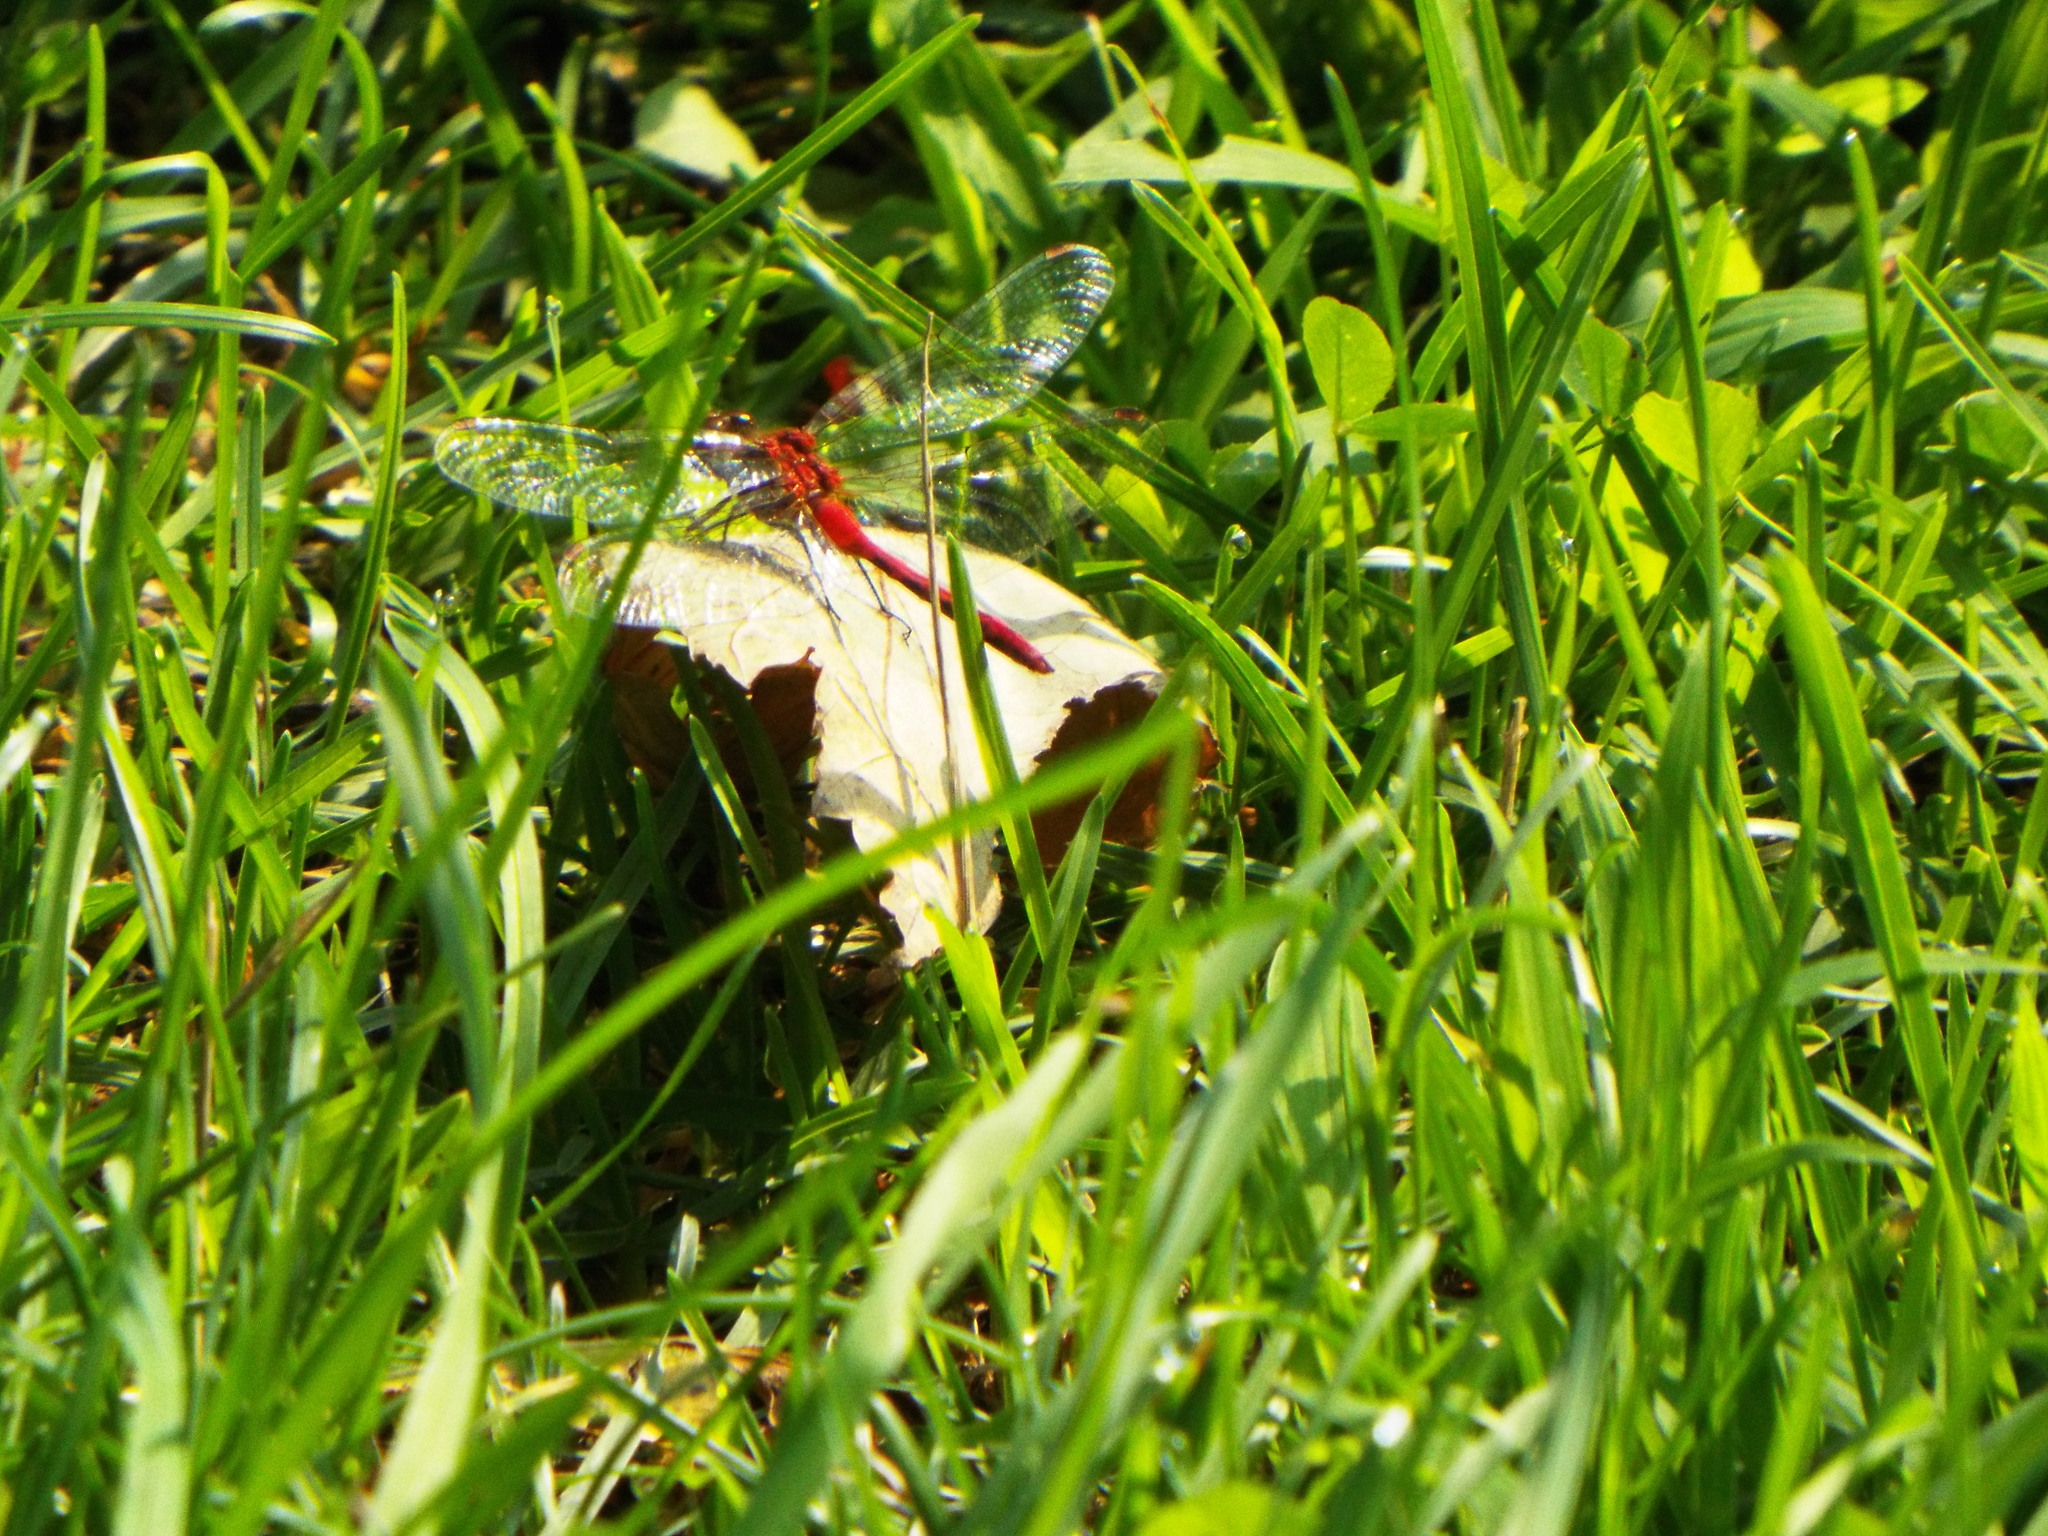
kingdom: Animalia
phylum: Arthropoda
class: Insecta
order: Odonata
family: Libellulidae
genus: Sympetrum
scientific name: Sympetrum
